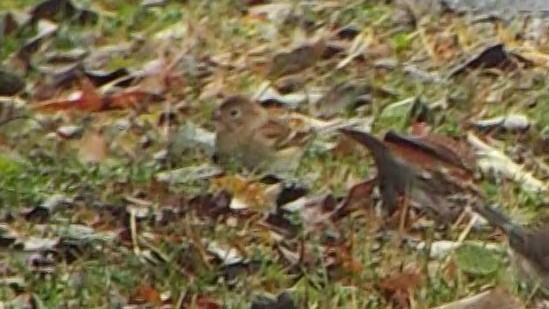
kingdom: Animalia
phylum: Chordata
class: Aves
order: Passeriformes
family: Passerellidae
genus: Spizella
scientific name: Spizella pusilla
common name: Field sparrow
